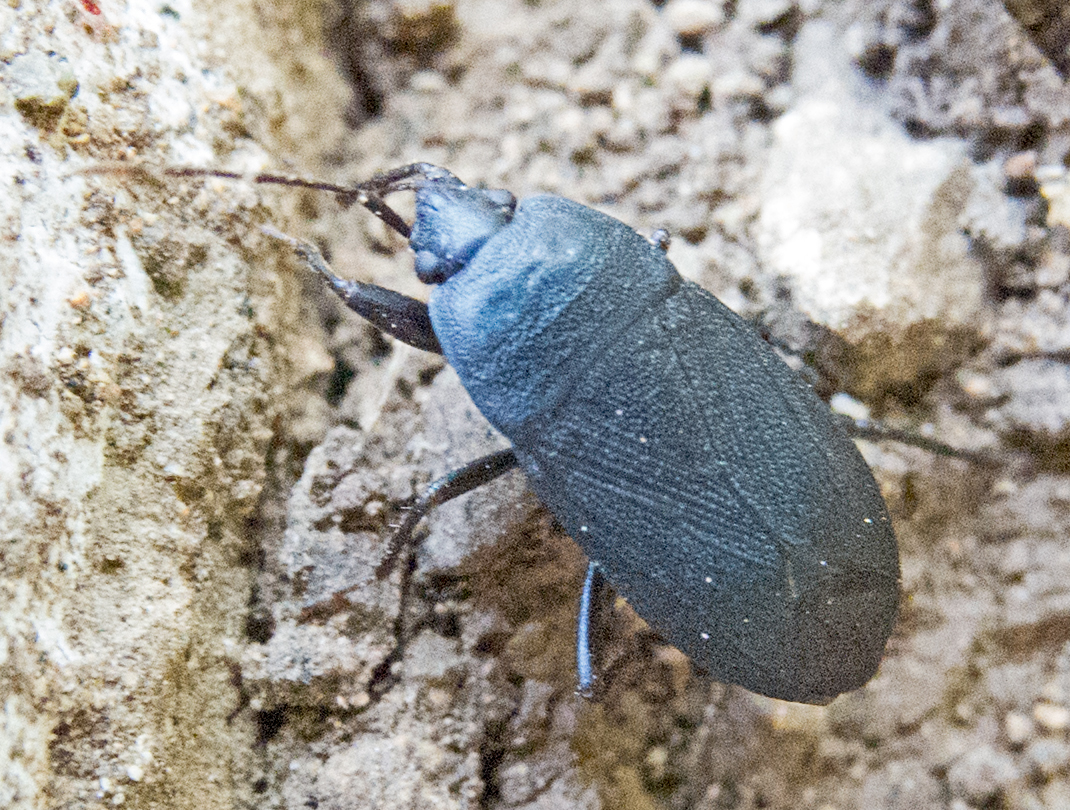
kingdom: Animalia
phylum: Arthropoda
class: Insecta
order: Hemiptera
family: Rhyparochromidae
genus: Lethaeus
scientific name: Lethaeus cribratissimus
